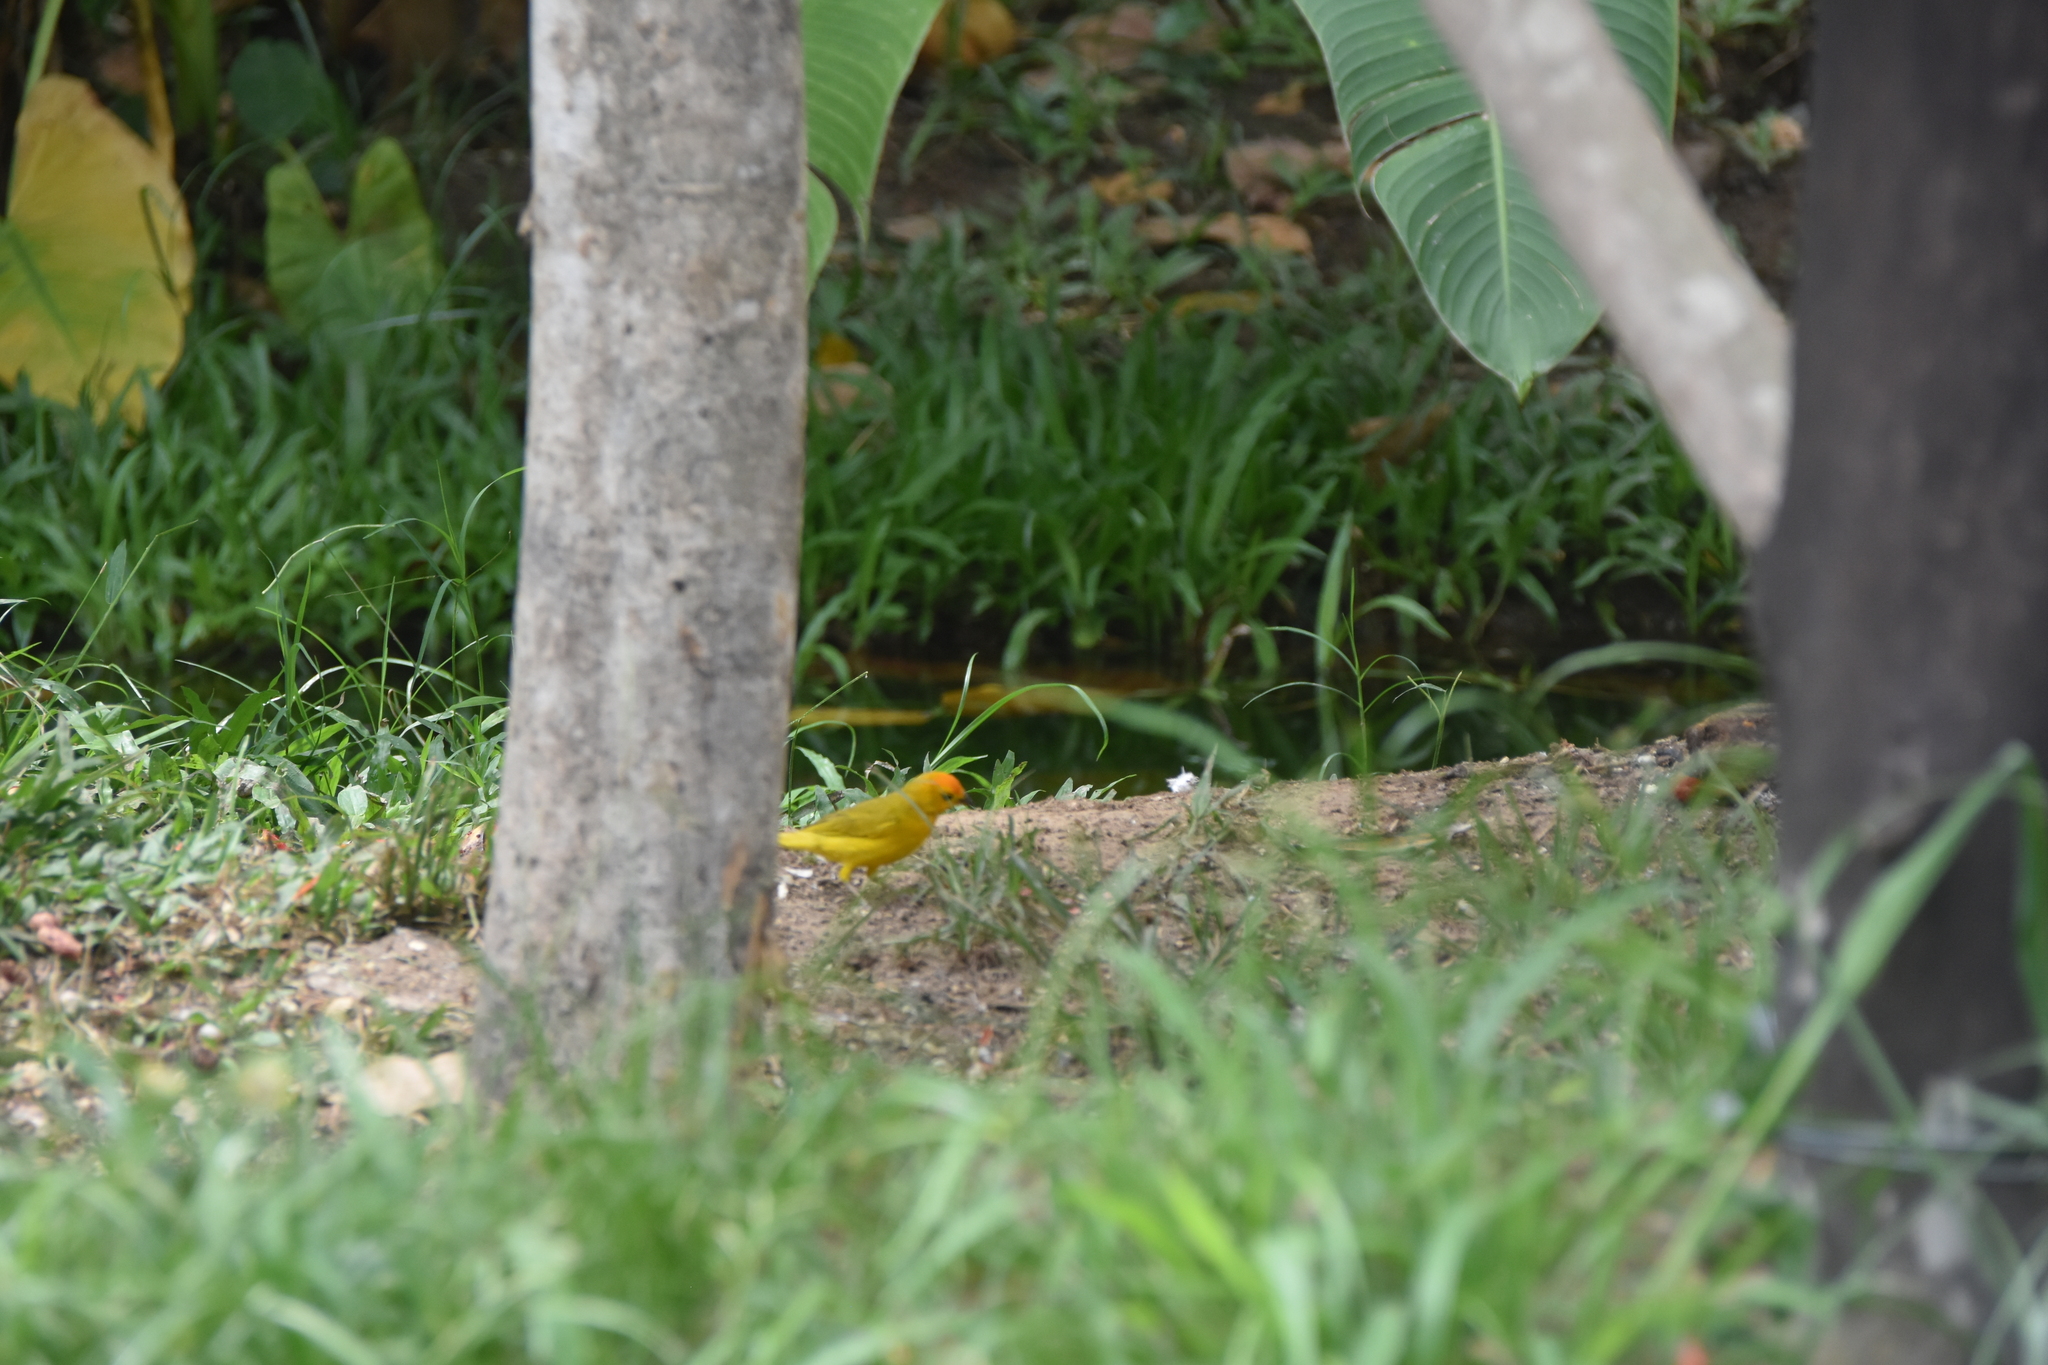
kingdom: Animalia
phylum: Chordata
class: Aves
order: Passeriformes
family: Thraupidae
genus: Sicalis
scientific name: Sicalis flaveola
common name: Saffron finch
